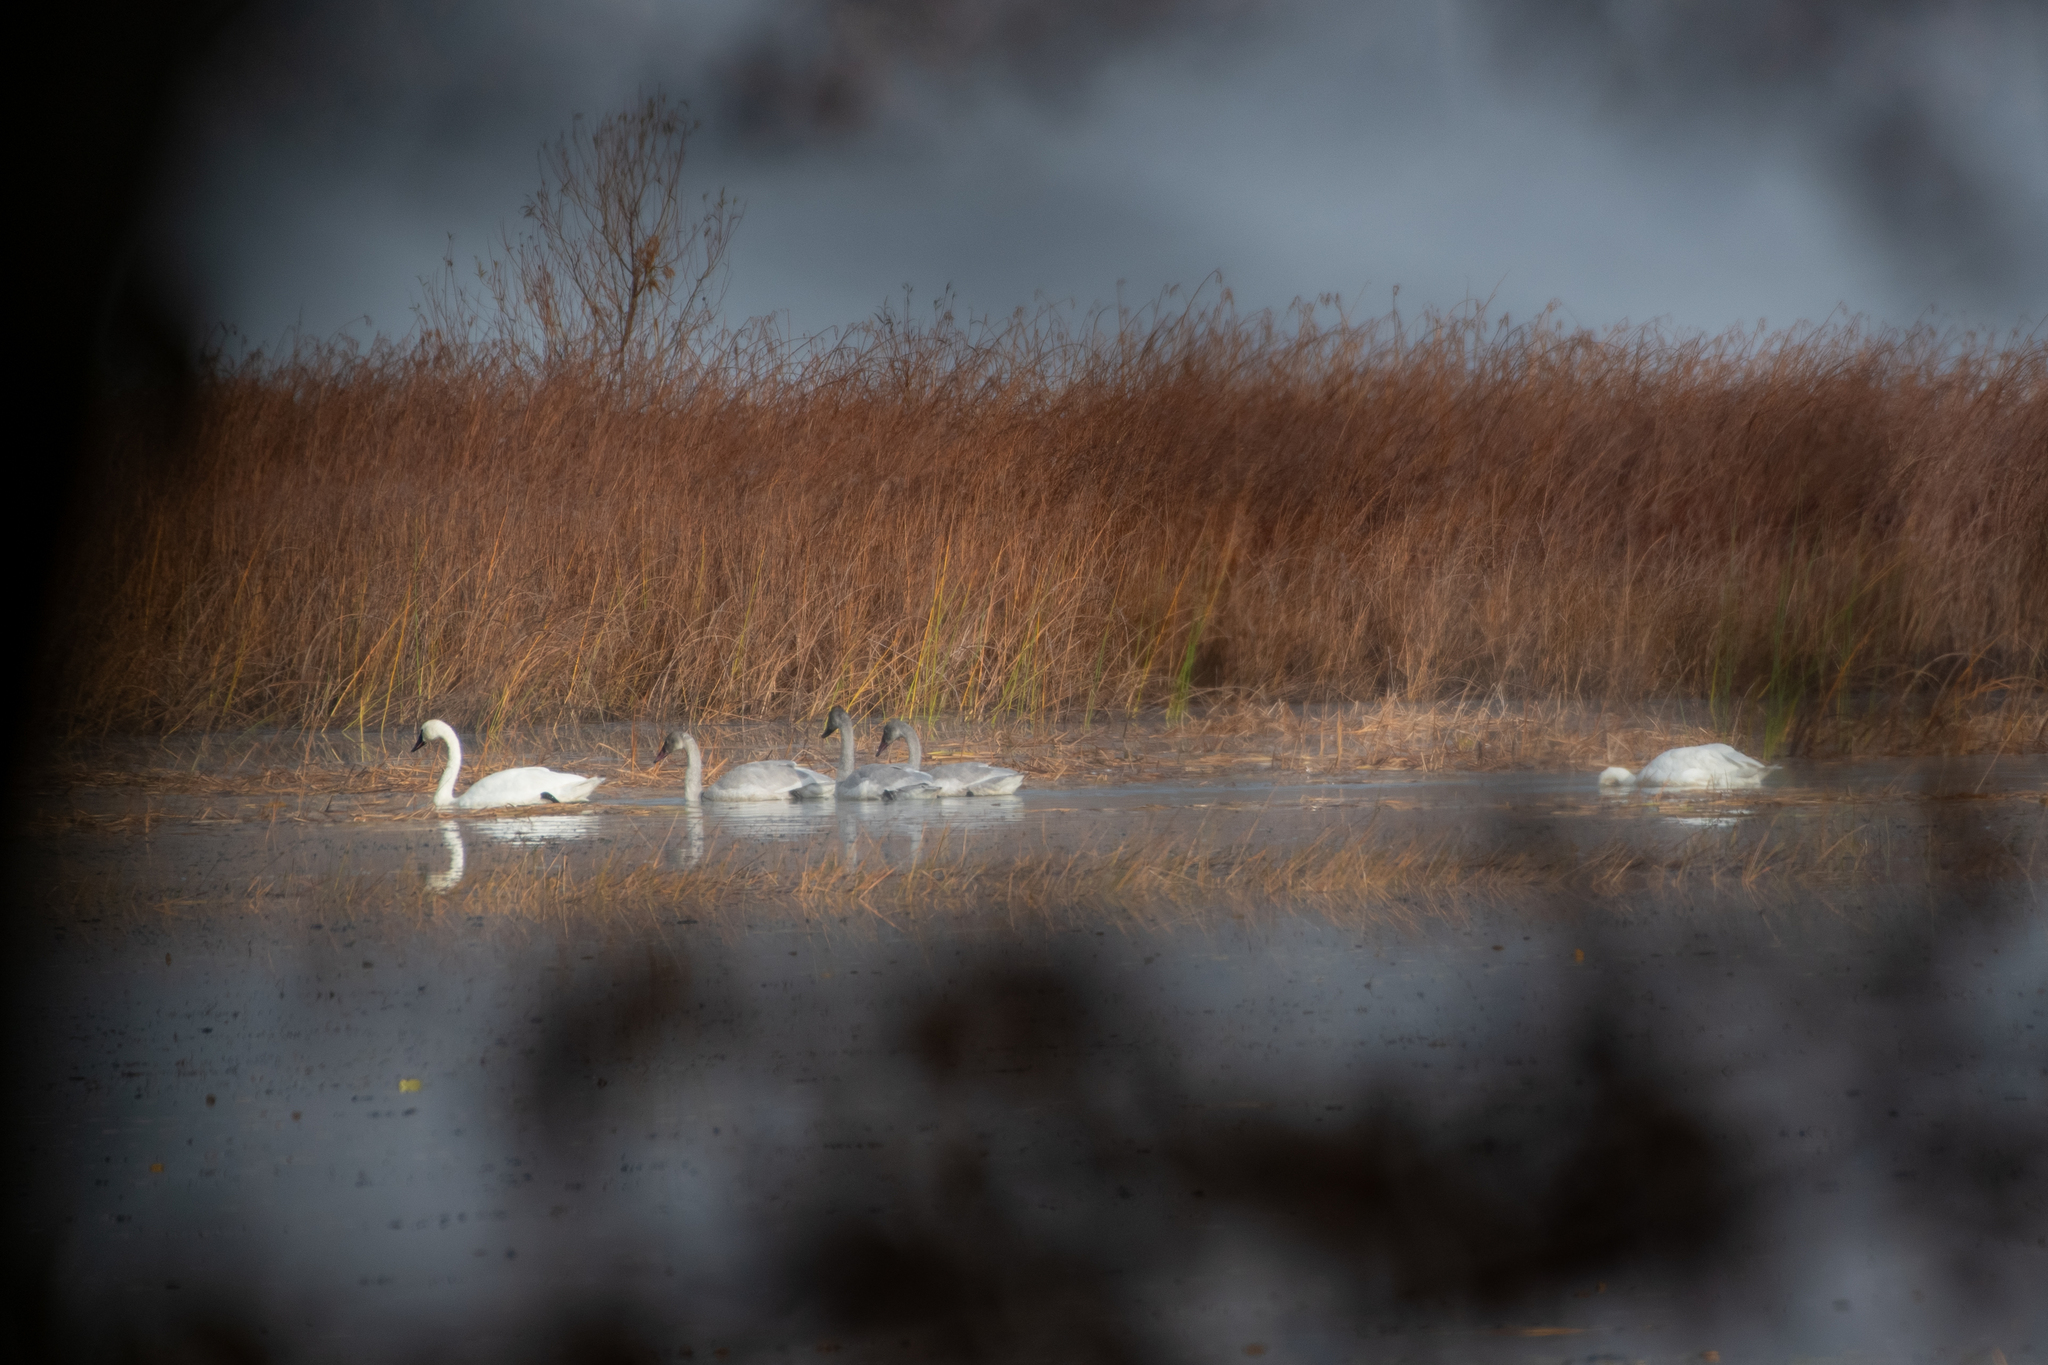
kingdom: Animalia
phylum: Chordata
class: Aves
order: Anseriformes
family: Anatidae
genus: Cygnus
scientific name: Cygnus columbianus
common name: Tundra swan
